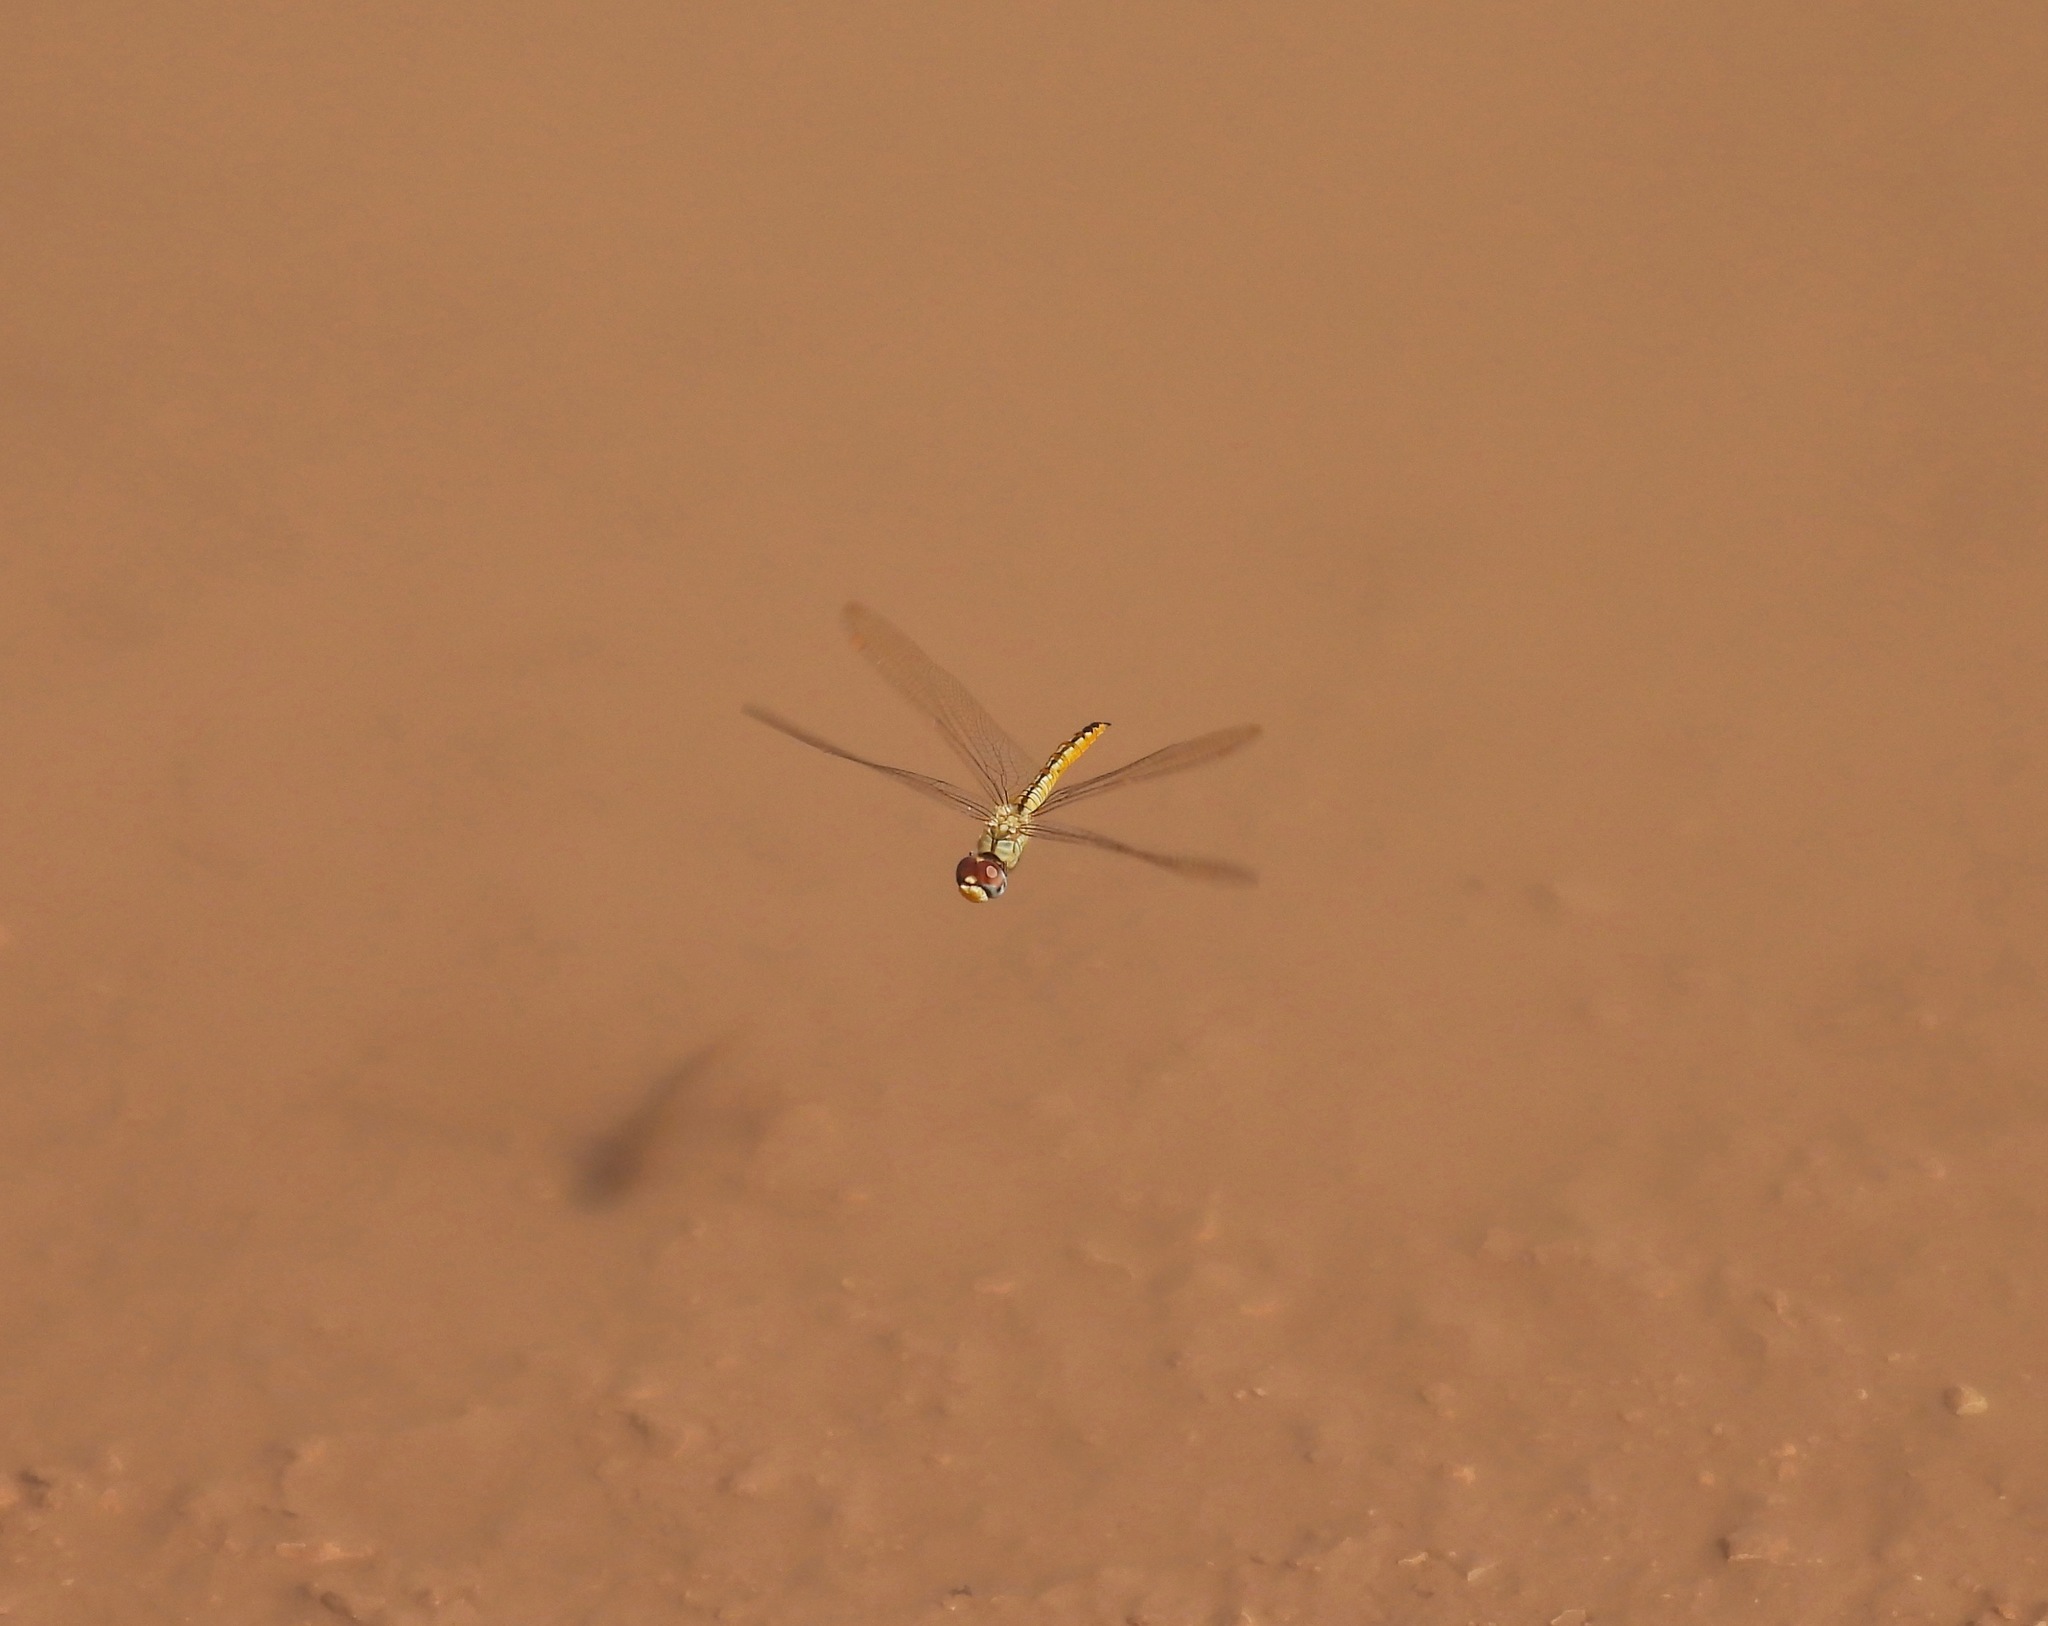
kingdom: Animalia
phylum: Arthropoda
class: Insecta
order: Odonata
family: Libellulidae
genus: Pantala
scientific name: Pantala flavescens
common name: Wandering glider
